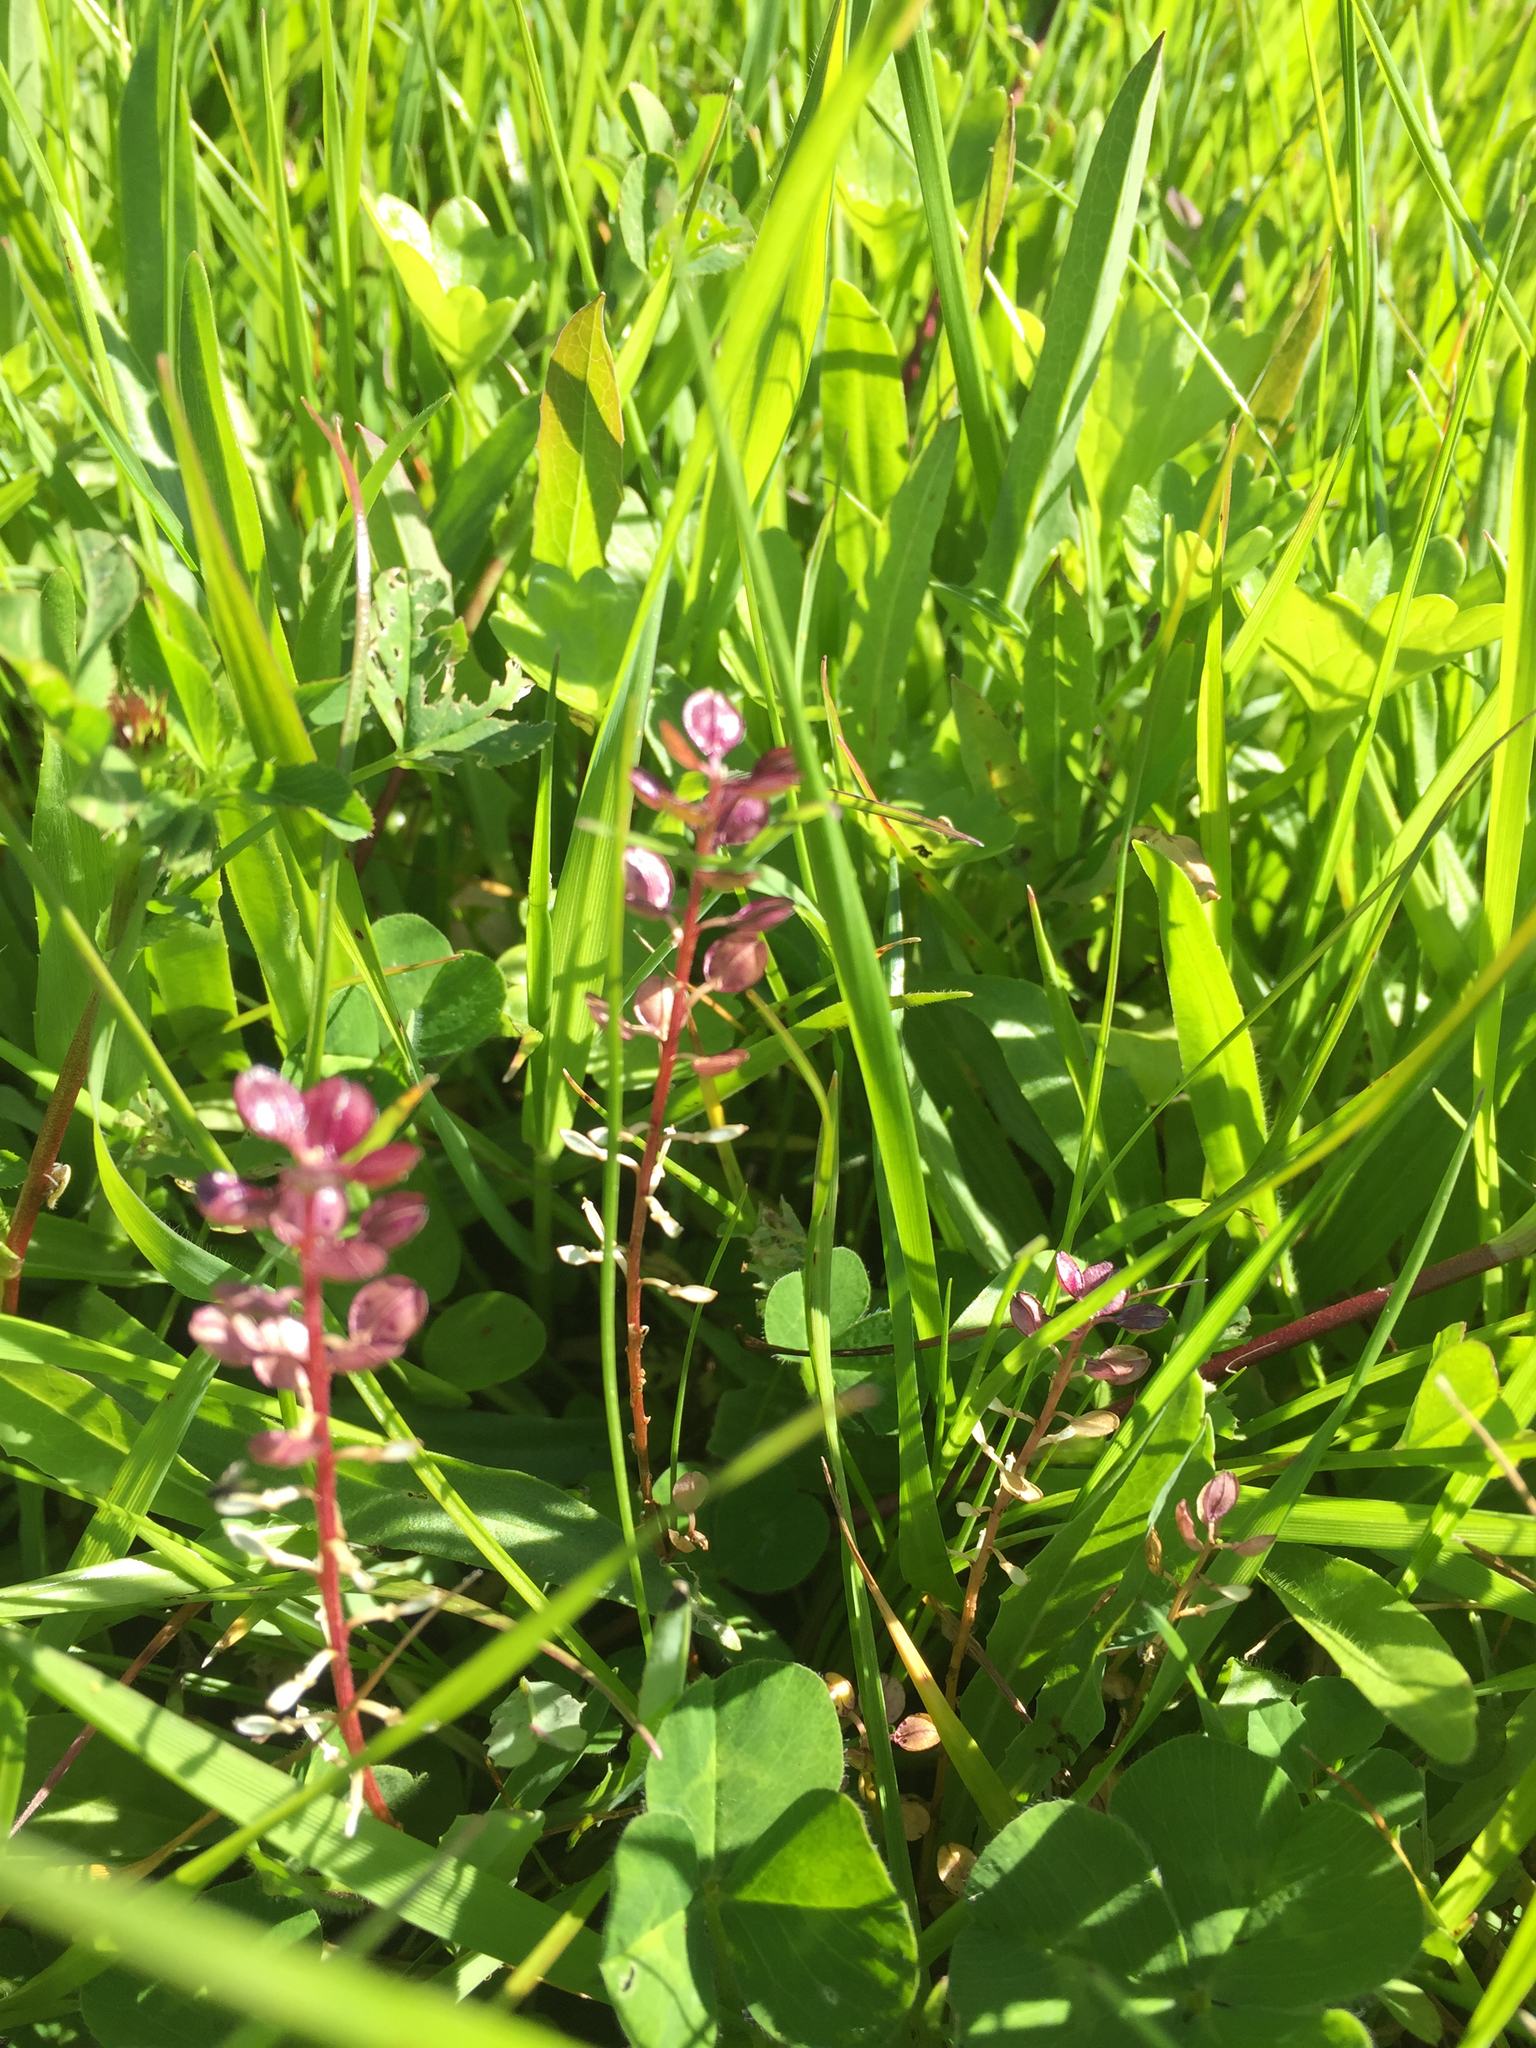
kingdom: Plantae
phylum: Tracheophyta
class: Magnoliopsida
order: Brassicales
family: Brassicaceae
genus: Lepidium
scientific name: Lepidium nitidum
